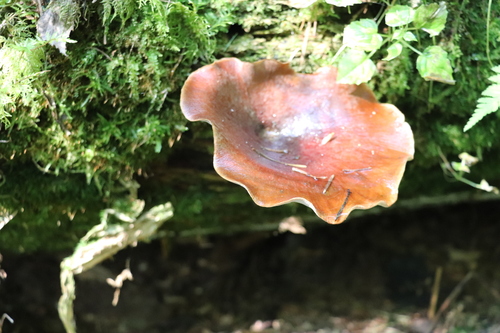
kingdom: Fungi
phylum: Basidiomycota
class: Agaricomycetes
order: Polyporales
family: Polyporaceae
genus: Picipes
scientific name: Picipes badius
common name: Bay polypore
